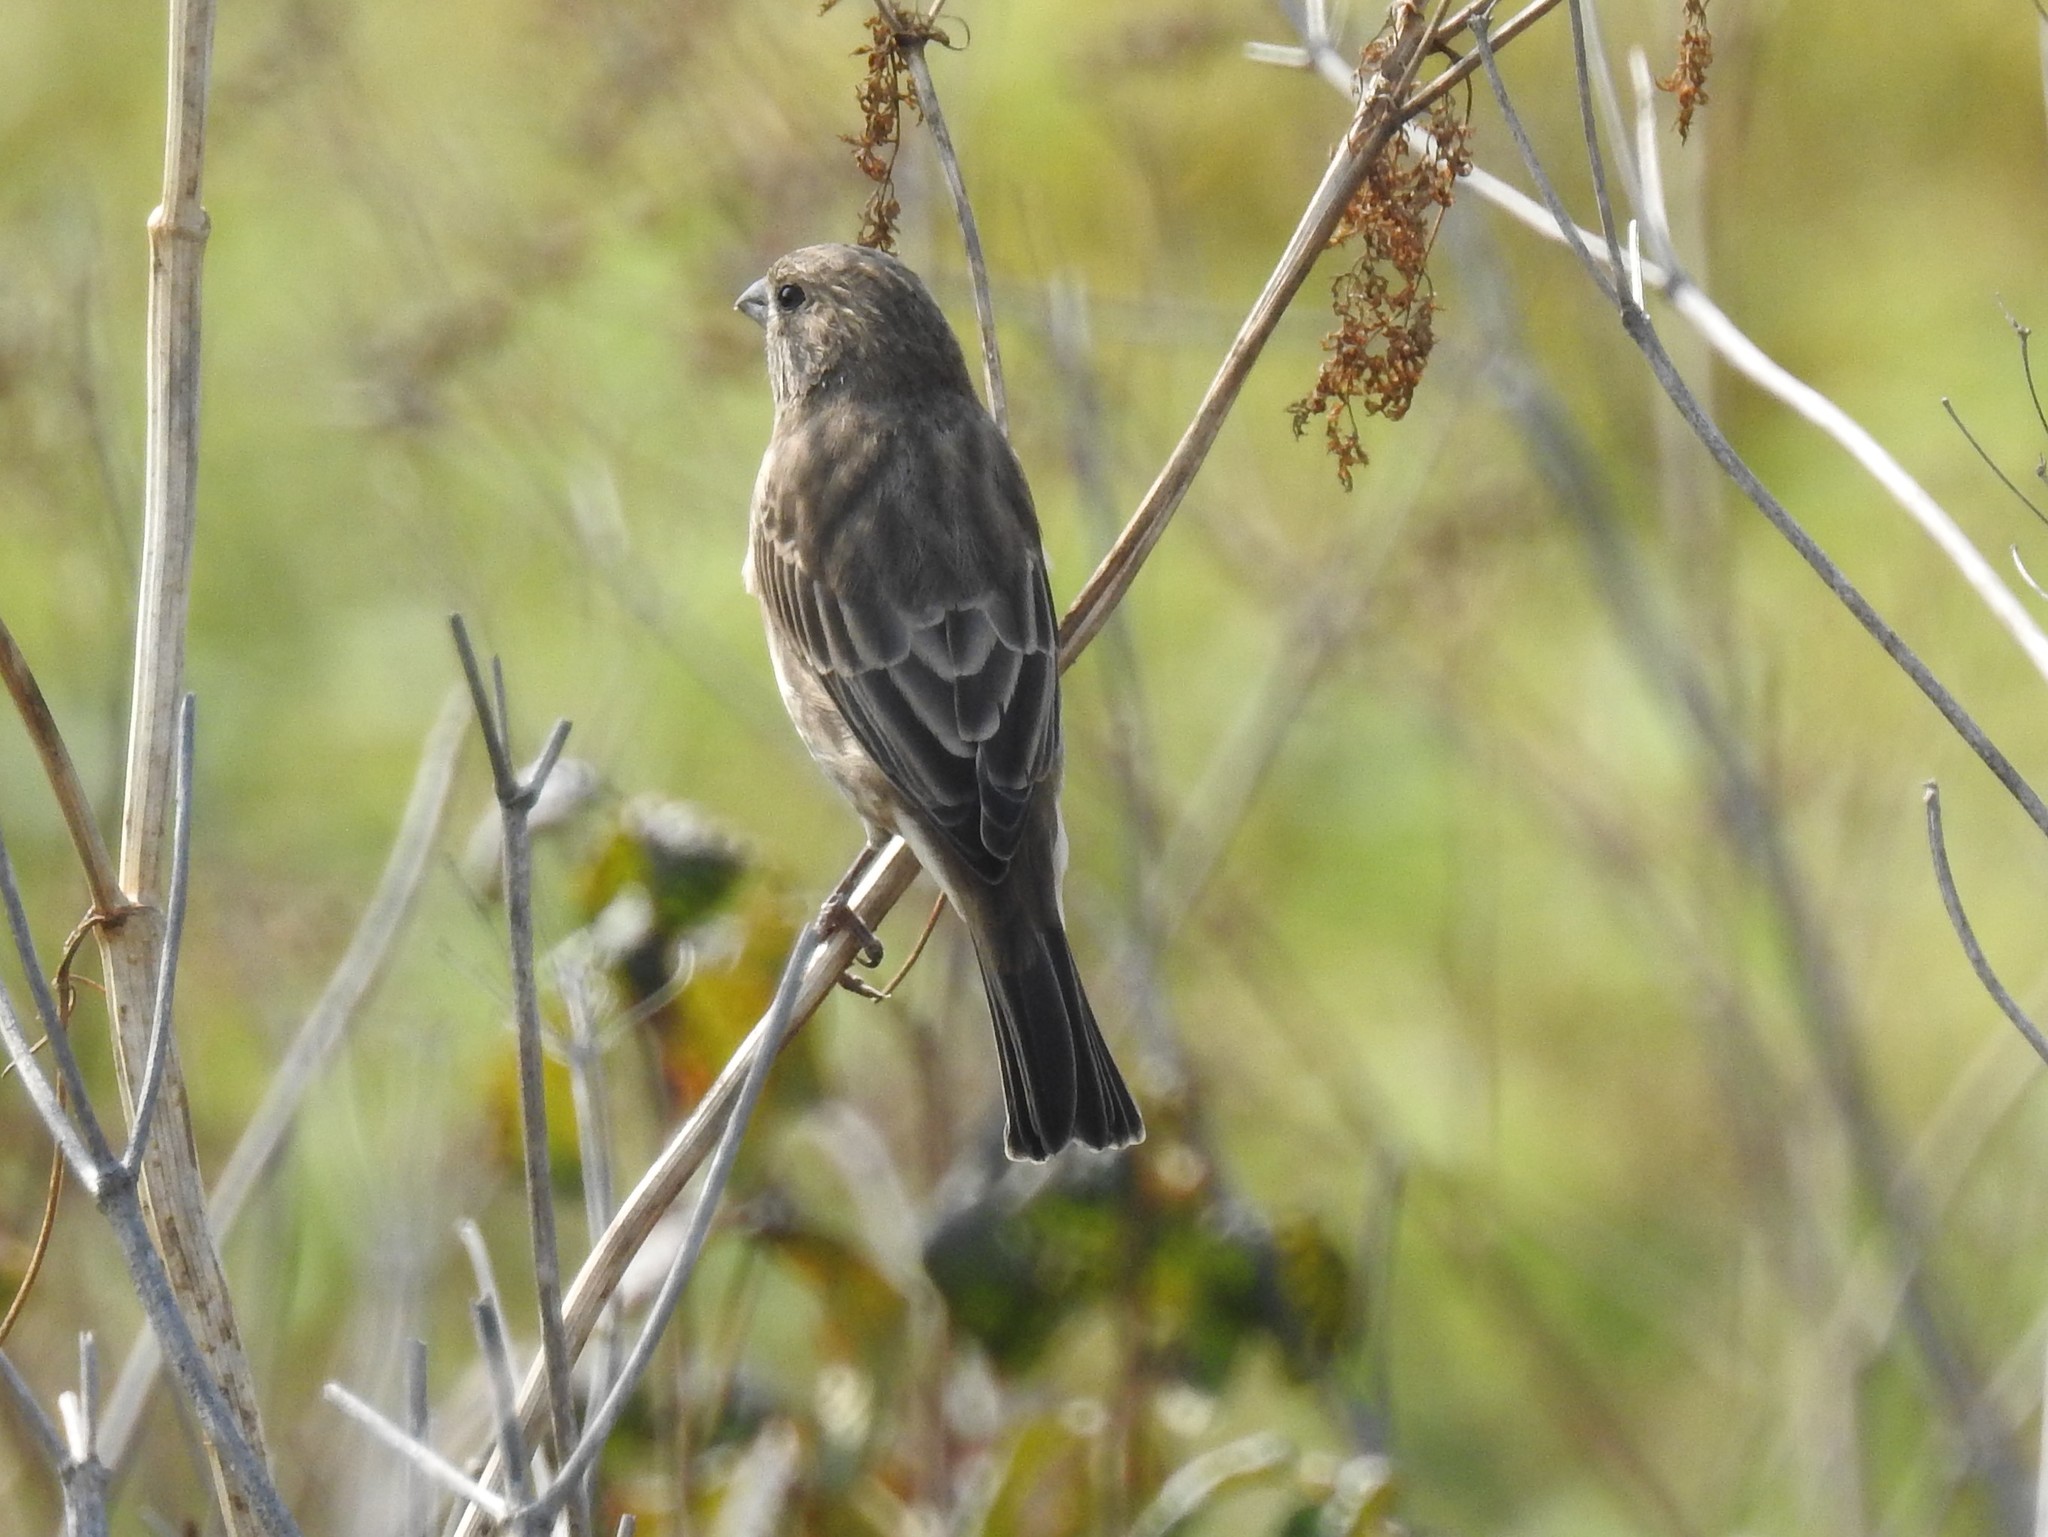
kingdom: Animalia
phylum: Chordata
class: Aves
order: Passeriformes
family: Fringillidae
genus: Haemorhous
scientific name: Haemorhous mexicanus
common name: House finch
